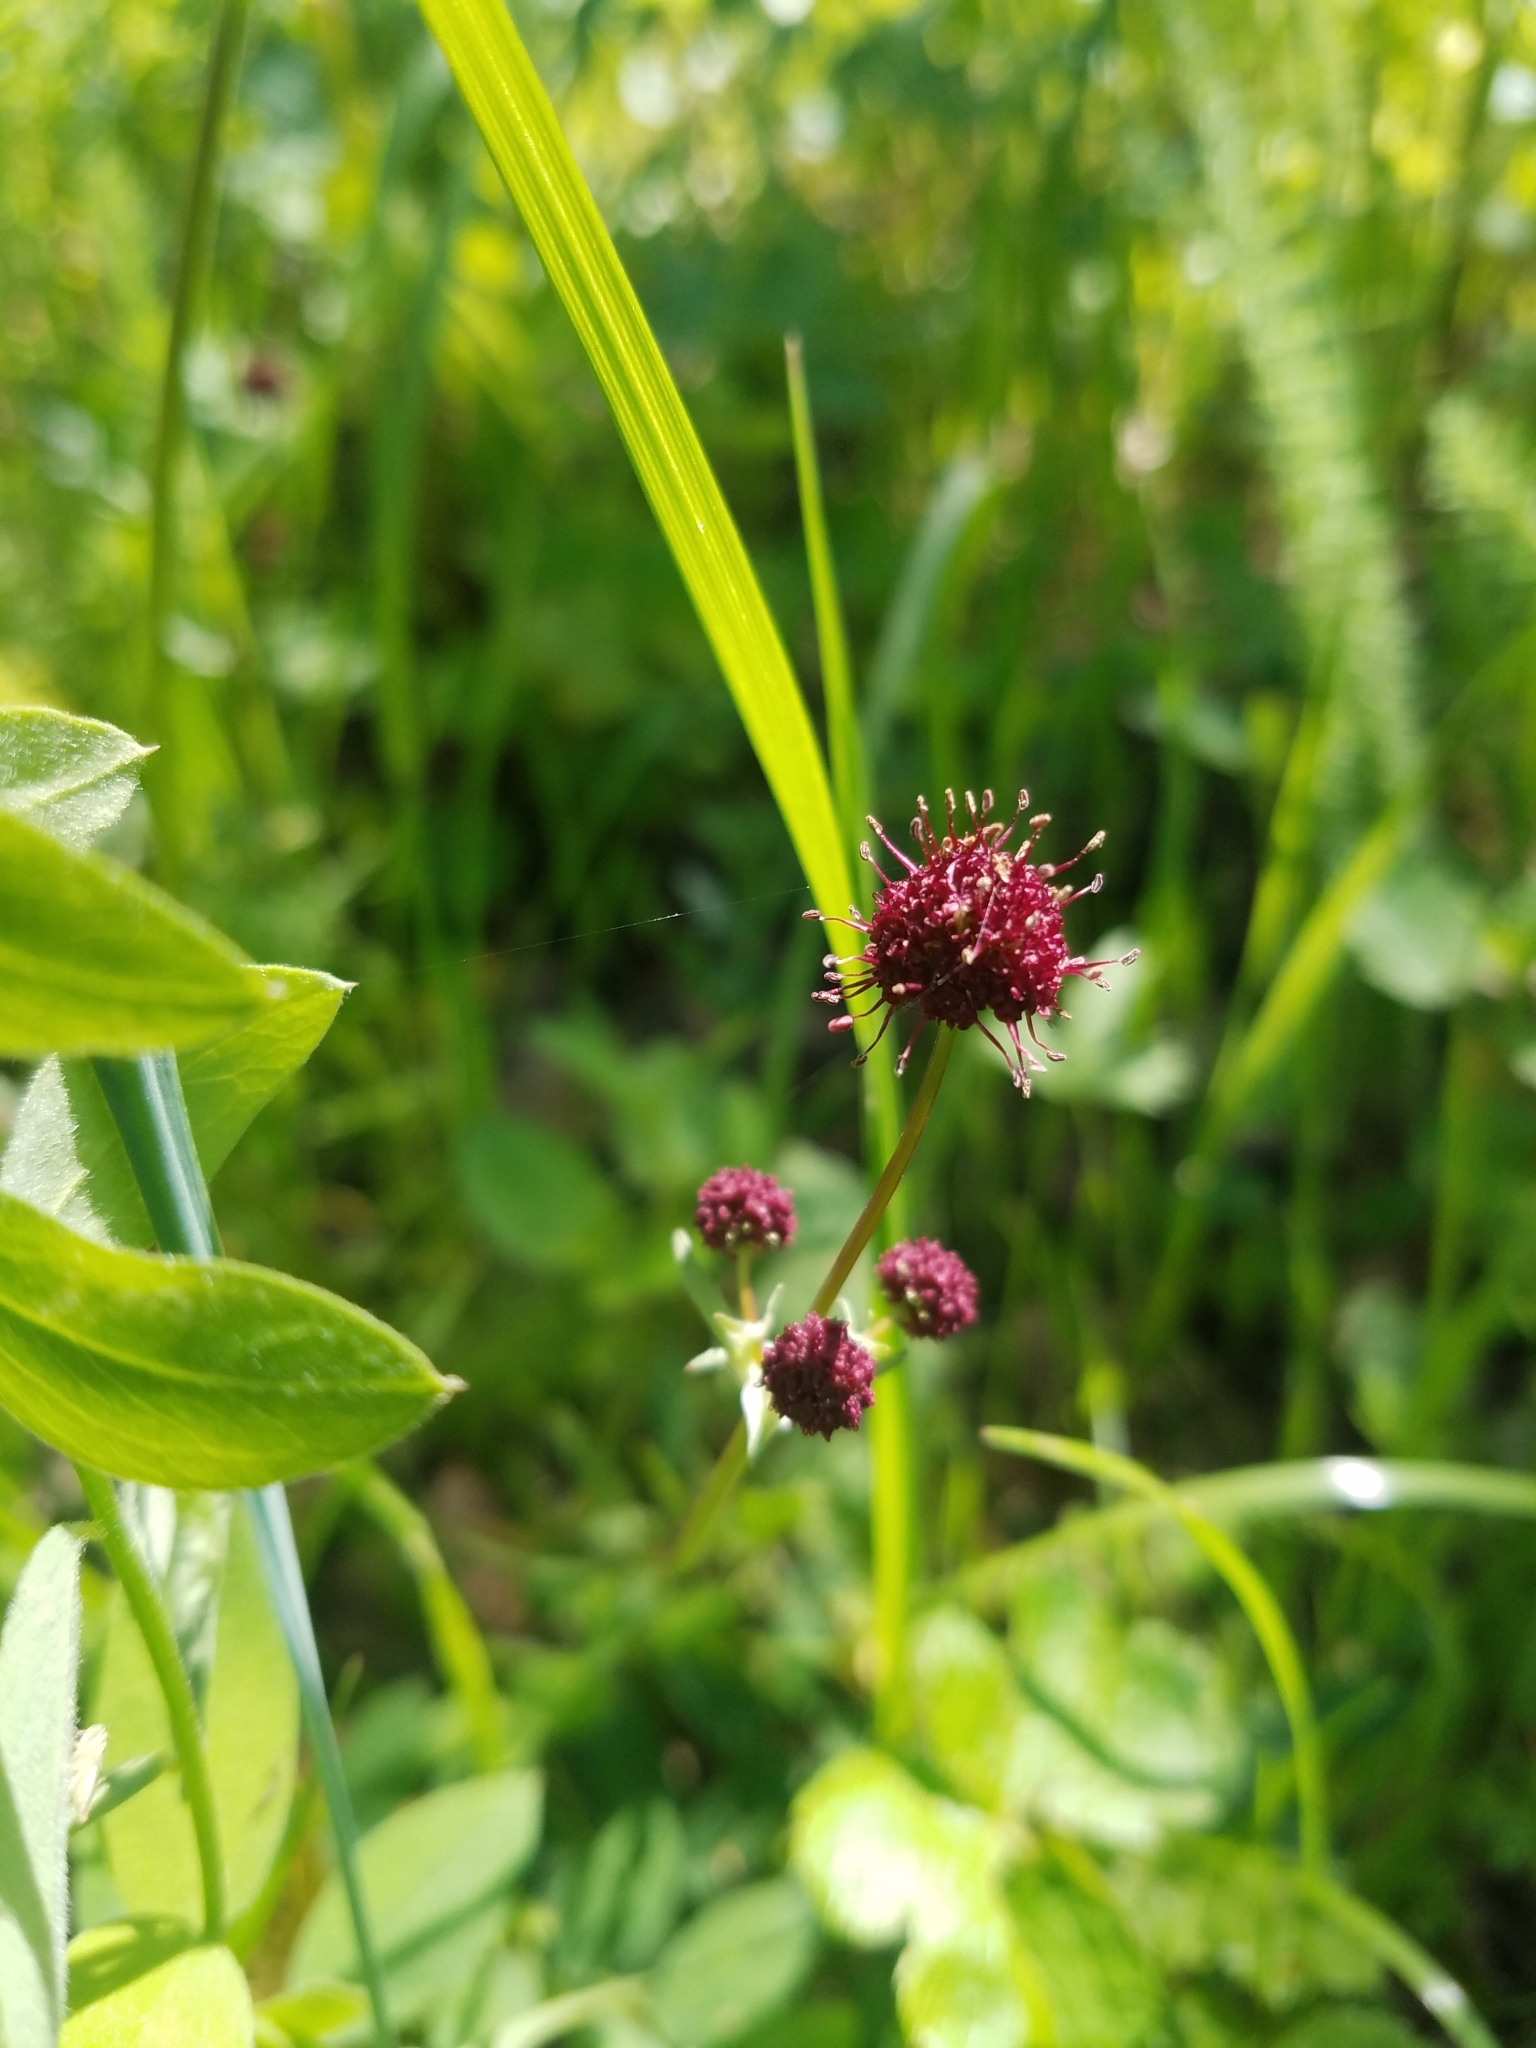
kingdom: Plantae
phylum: Tracheophyta
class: Magnoliopsida
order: Apiales
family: Apiaceae
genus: Sanicula
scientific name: Sanicula bipinnatifida
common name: Shoe-buttons
